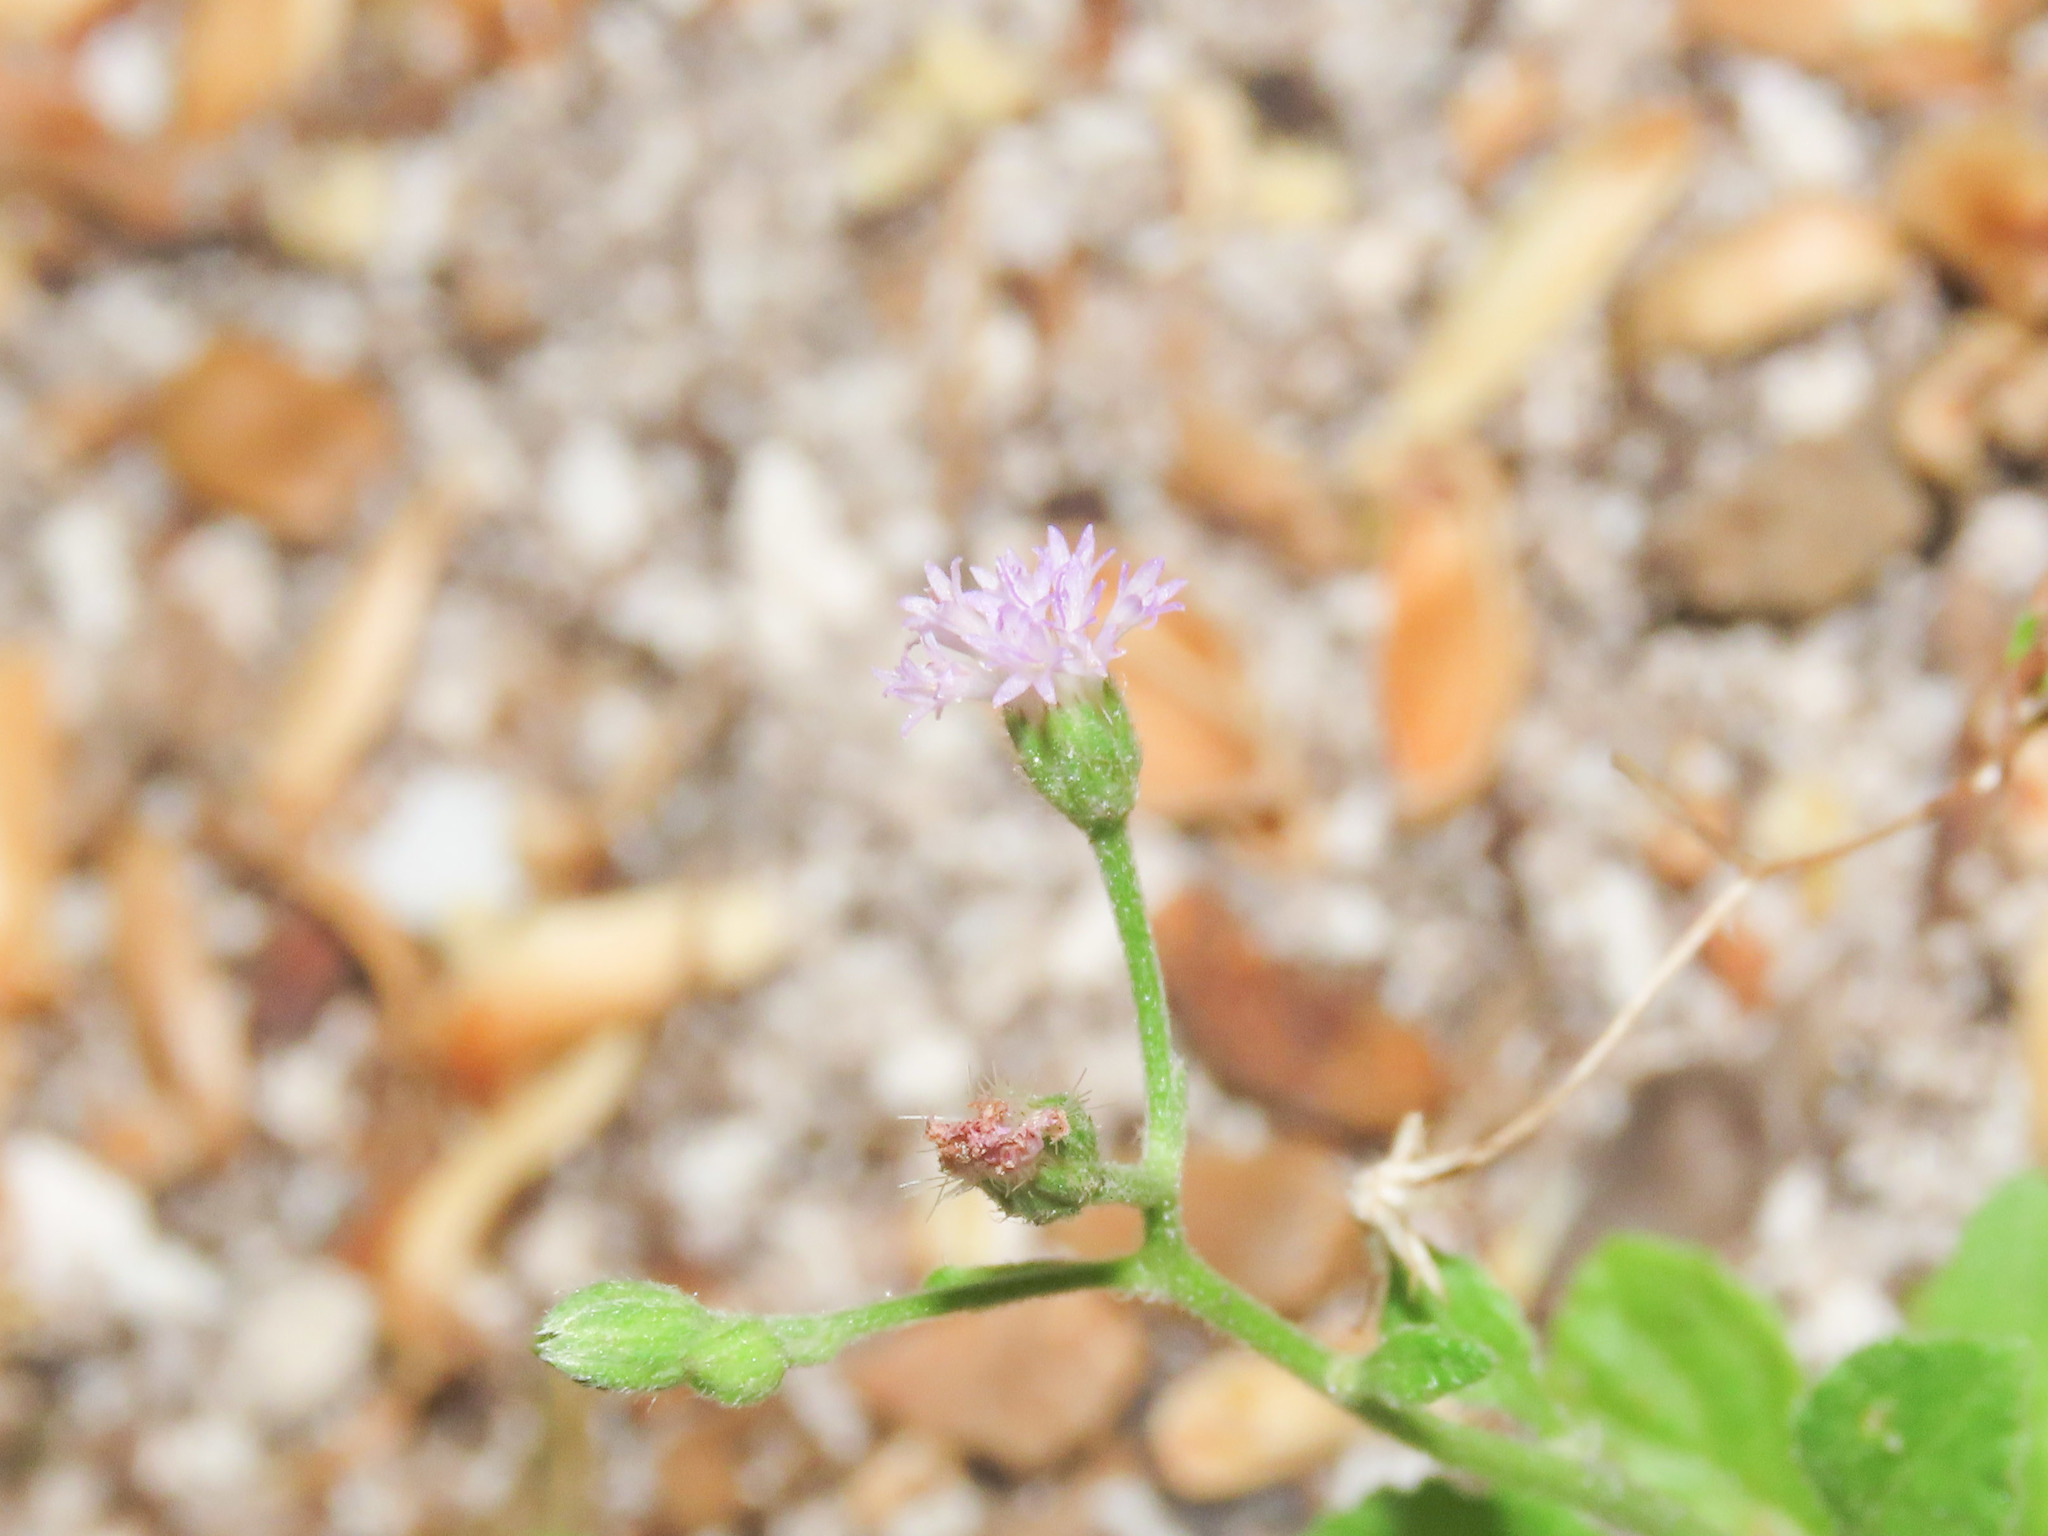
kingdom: Plantae
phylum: Tracheophyta
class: Magnoliopsida
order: Asterales
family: Asteraceae
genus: Cyanthillium
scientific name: Cyanthillium cinereum
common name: Little ironweed
